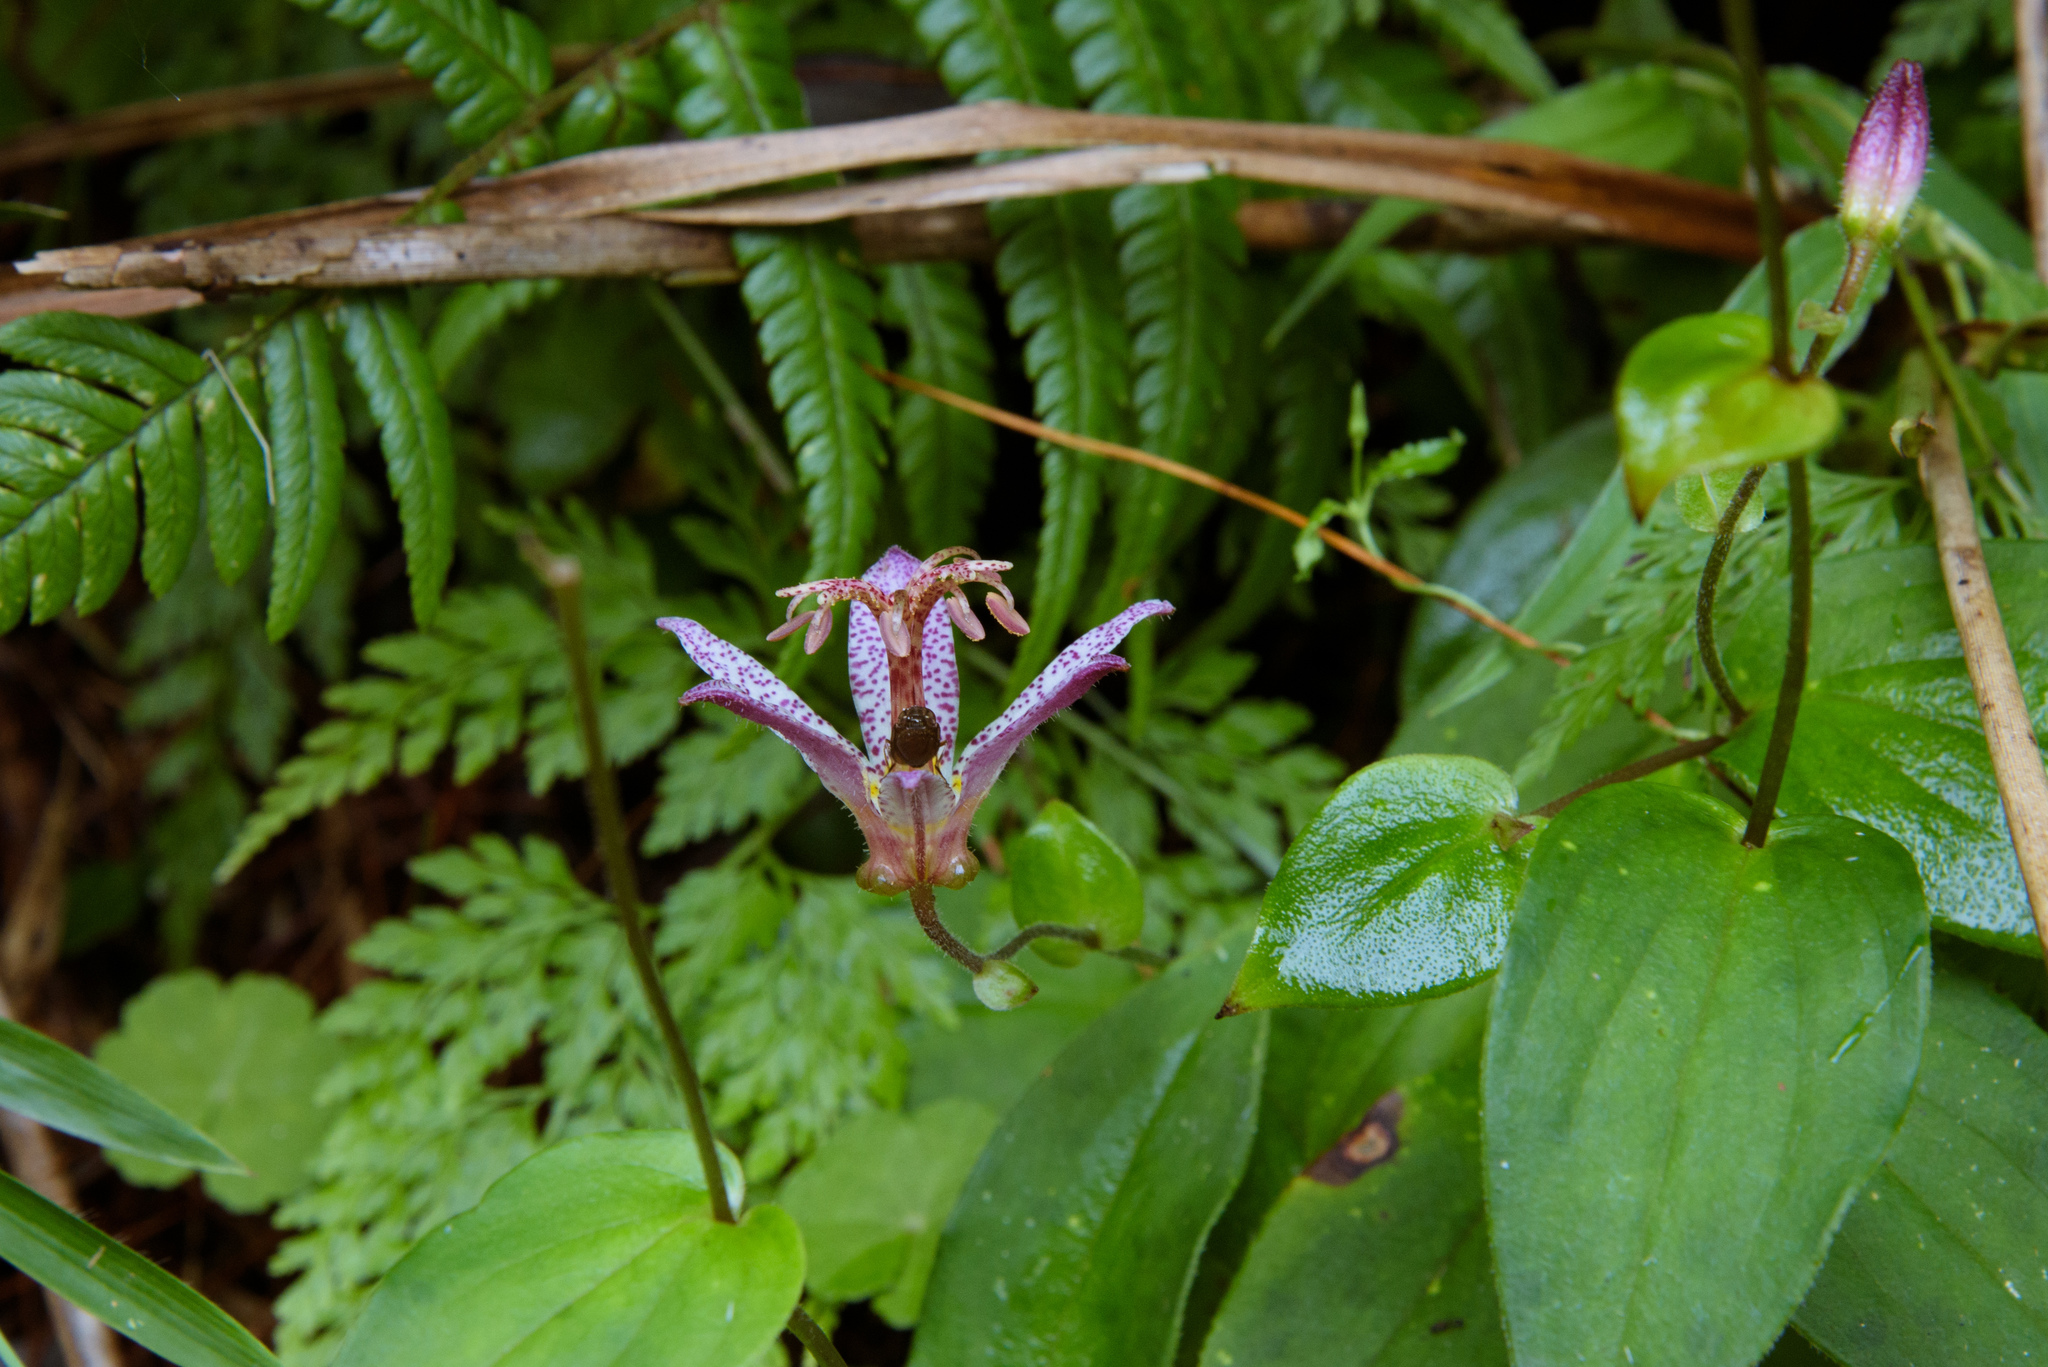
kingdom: Plantae
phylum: Tracheophyta
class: Liliopsida
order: Liliales
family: Liliaceae
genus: Tricyrtis
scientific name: Tricyrtis formosana
